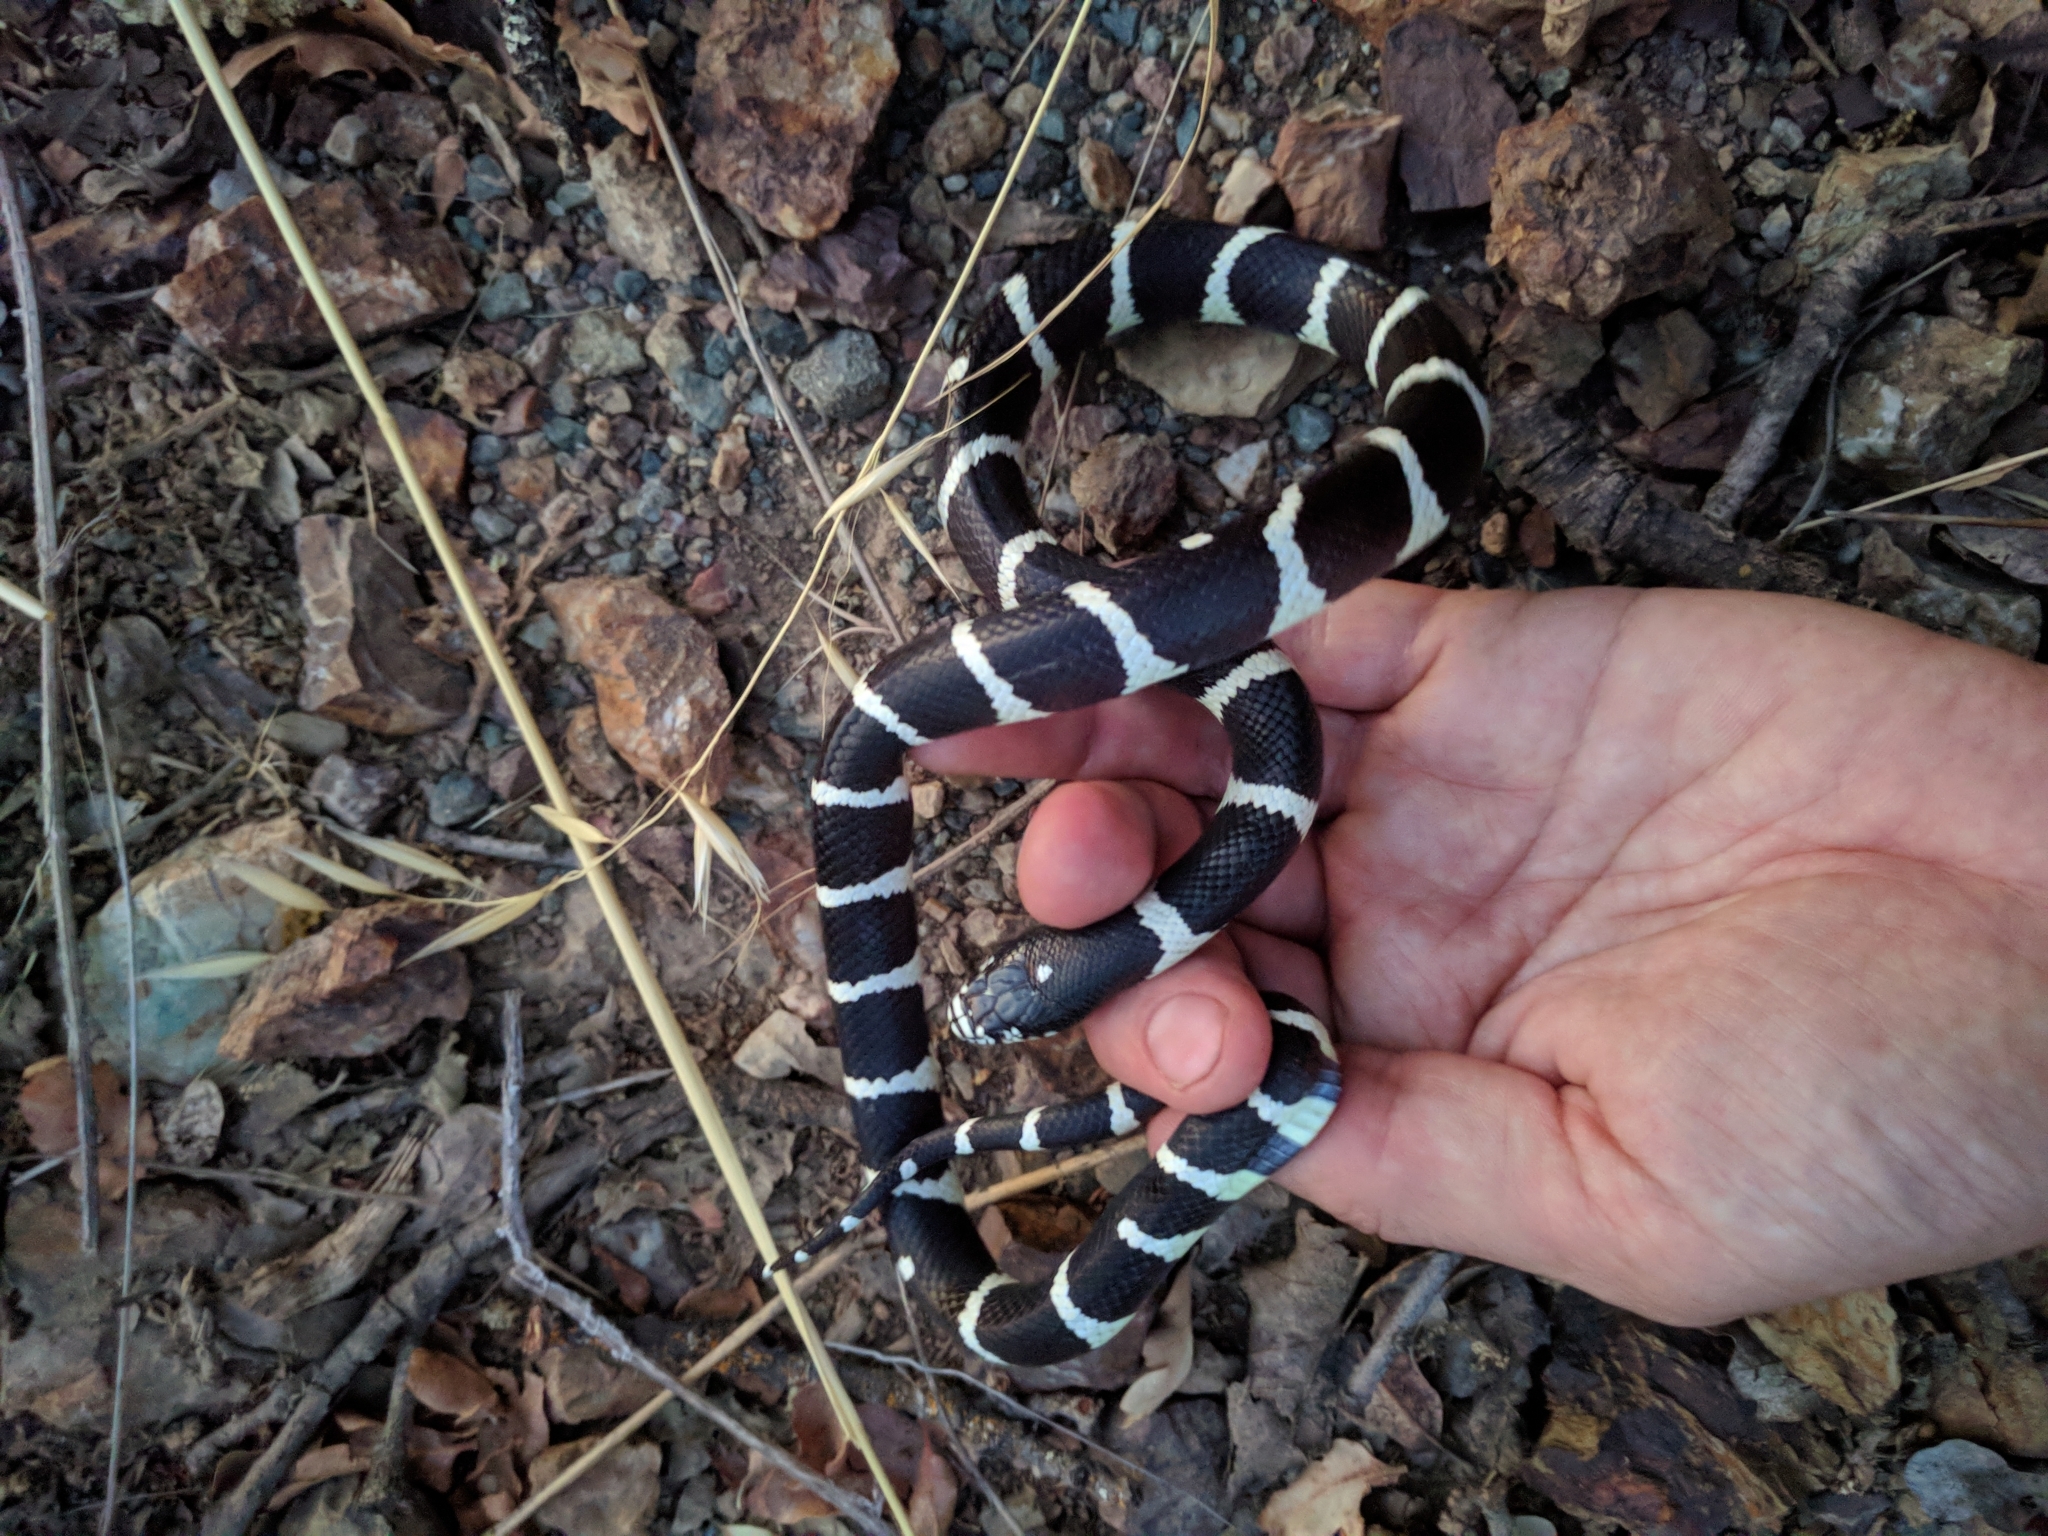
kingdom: Animalia
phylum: Chordata
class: Squamata
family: Colubridae
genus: Lampropeltis
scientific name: Lampropeltis californiae
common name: California kingsnake
